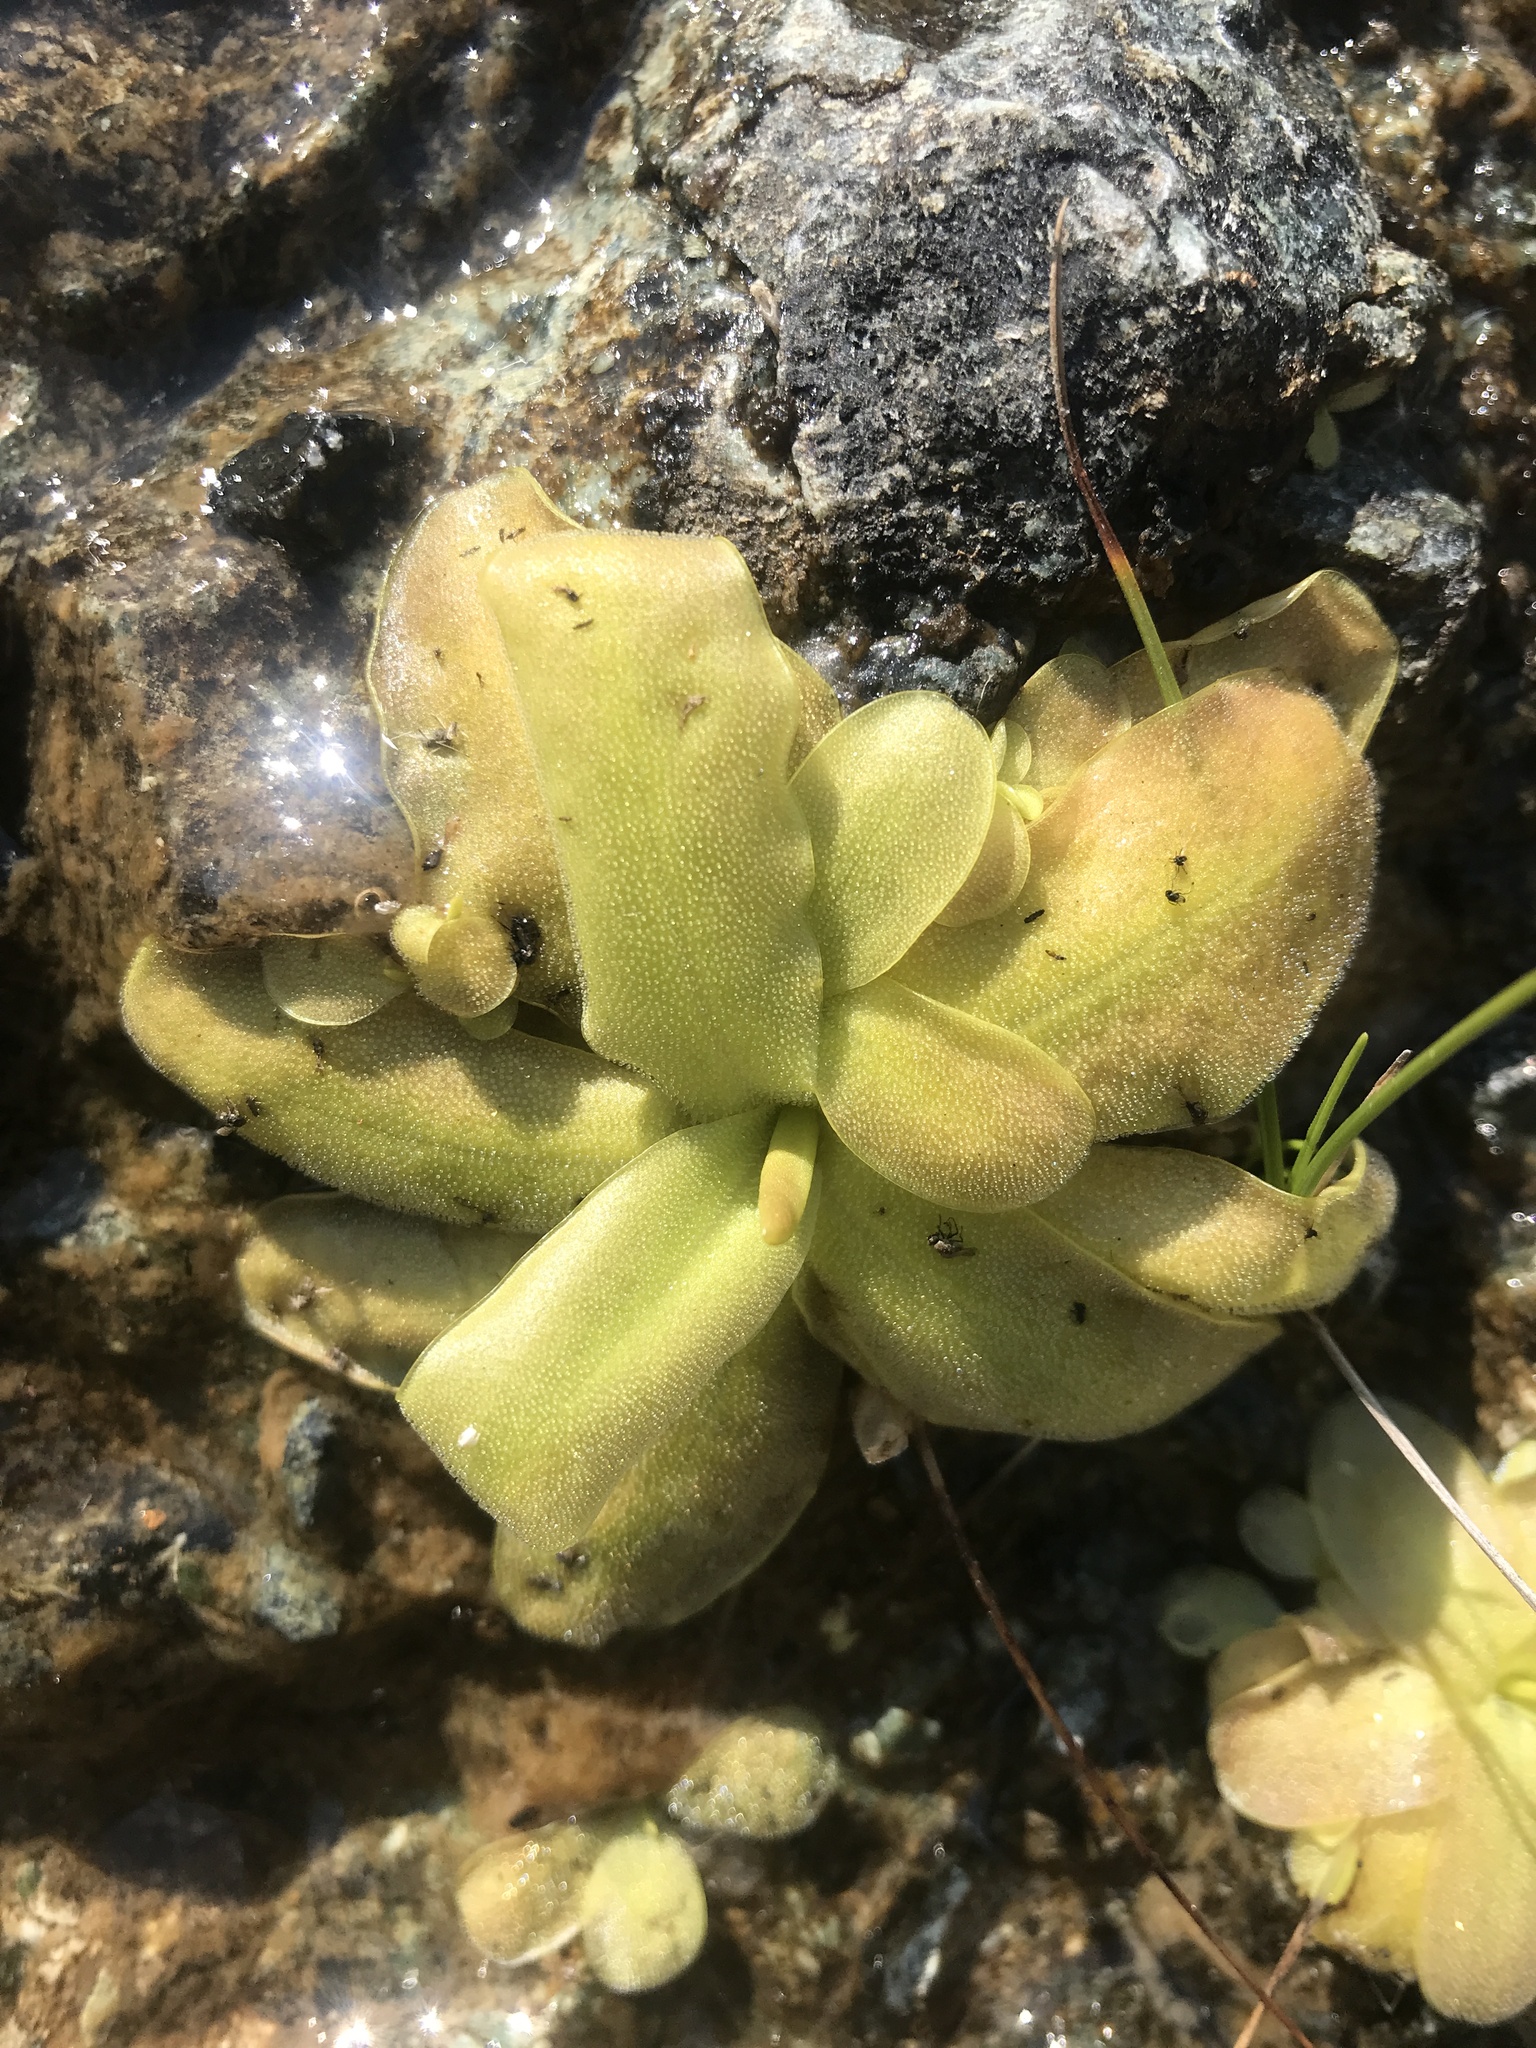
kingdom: Plantae
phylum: Tracheophyta
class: Magnoliopsida
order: Lamiales
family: Lentibulariaceae
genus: Pinguicula
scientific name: Pinguicula macroceras
